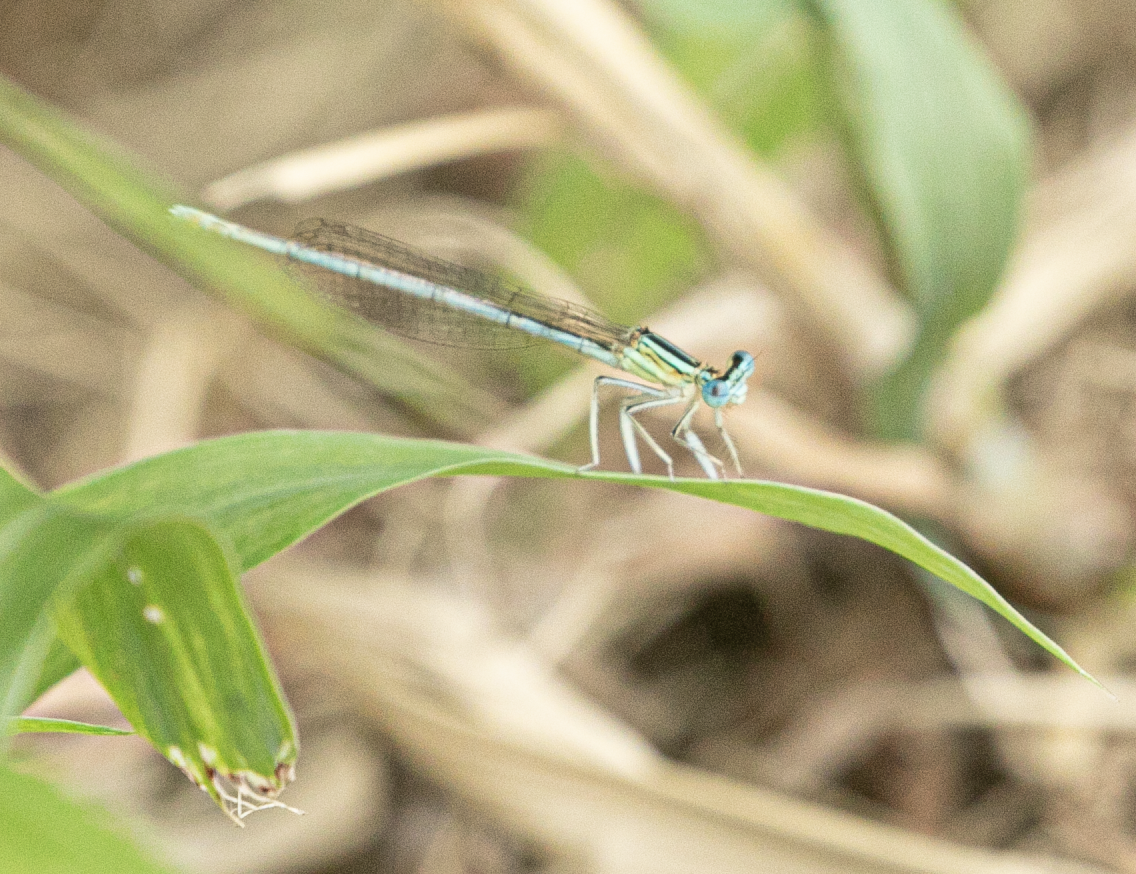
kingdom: Animalia
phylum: Arthropoda
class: Insecta
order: Odonata
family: Platycnemididae
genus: Platycnemis
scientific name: Platycnemis pennipes
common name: White-legged damselfly
